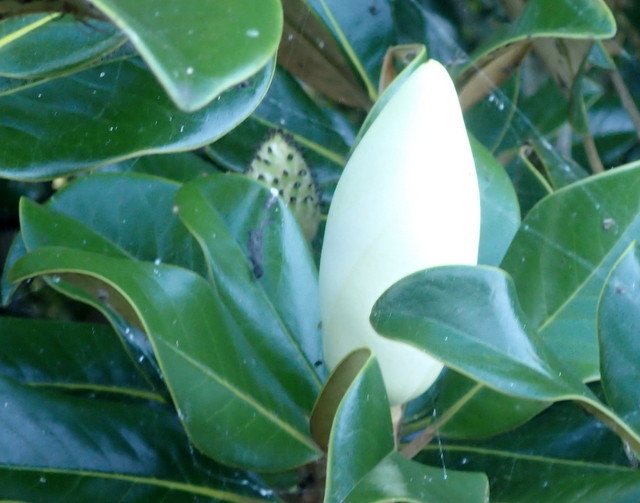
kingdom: Plantae
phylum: Tracheophyta
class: Magnoliopsida
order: Magnoliales
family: Magnoliaceae
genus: Magnolia
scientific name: Magnolia grandiflora
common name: Southern magnolia
